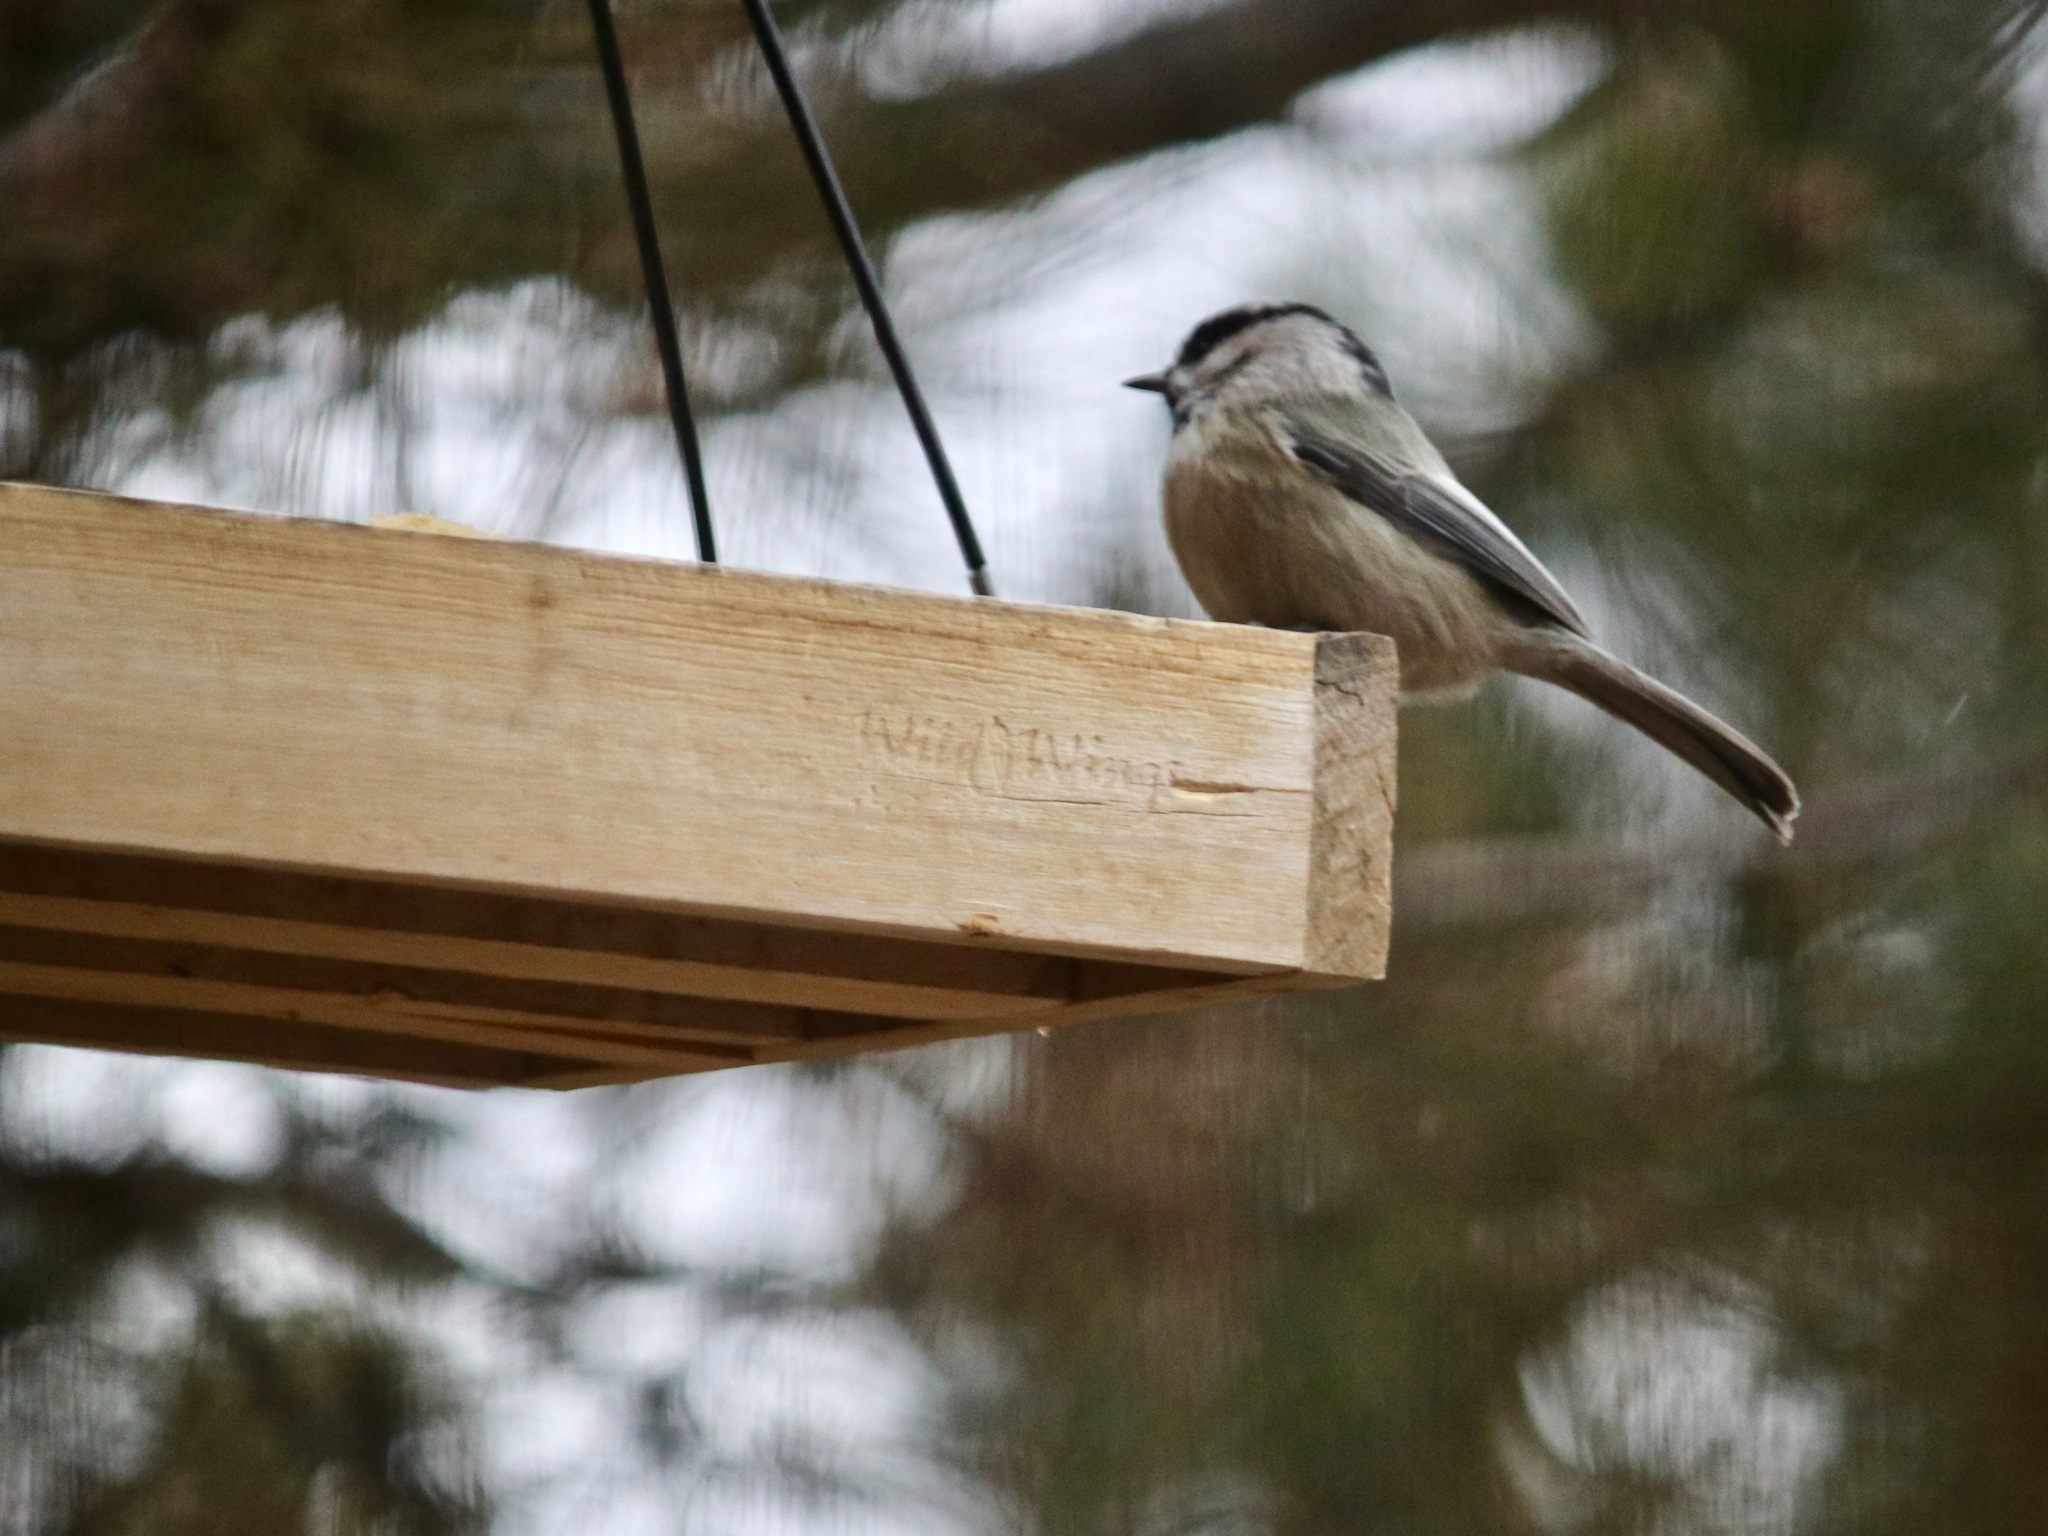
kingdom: Animalia
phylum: Chordata
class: Aves
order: Passeriformes
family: Paridae
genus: Poecile
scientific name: Poecile gambeli
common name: Mountain chickadee
